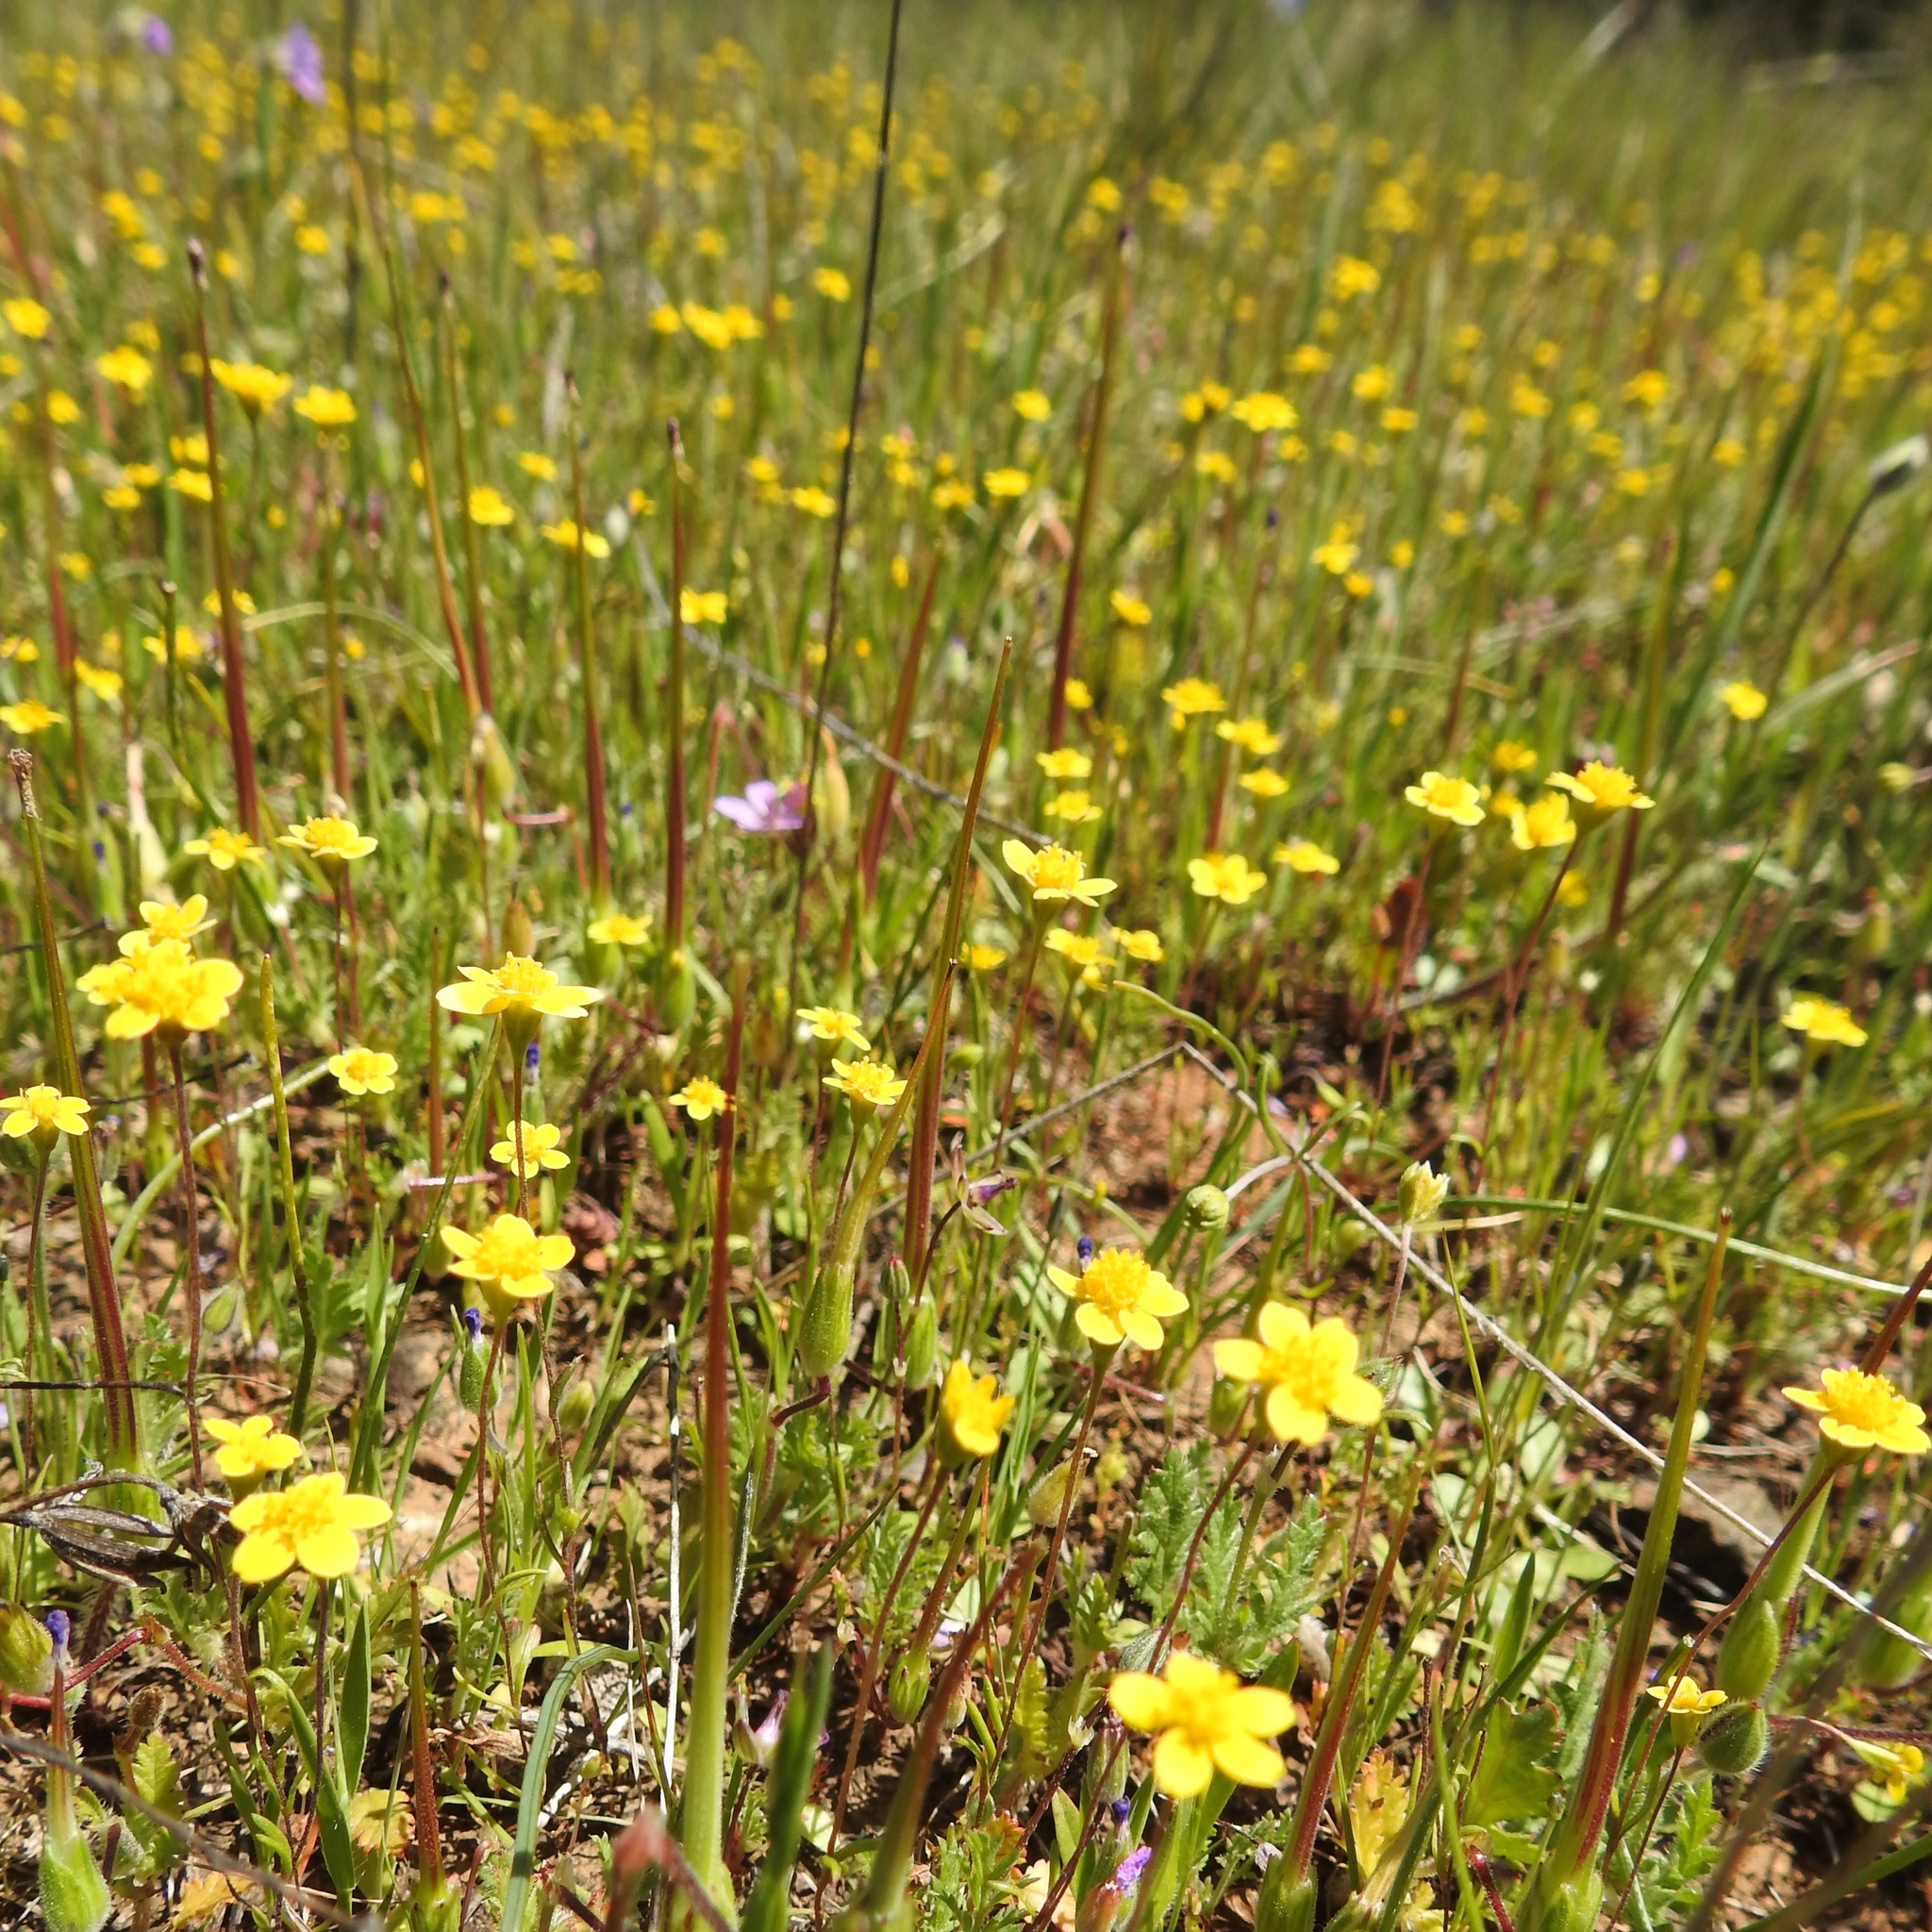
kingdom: Plantae
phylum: Tracheophyta
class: Magnoliopsida
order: Asterales
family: Asteraceae
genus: Lasthenia
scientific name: Lasthenia californica
